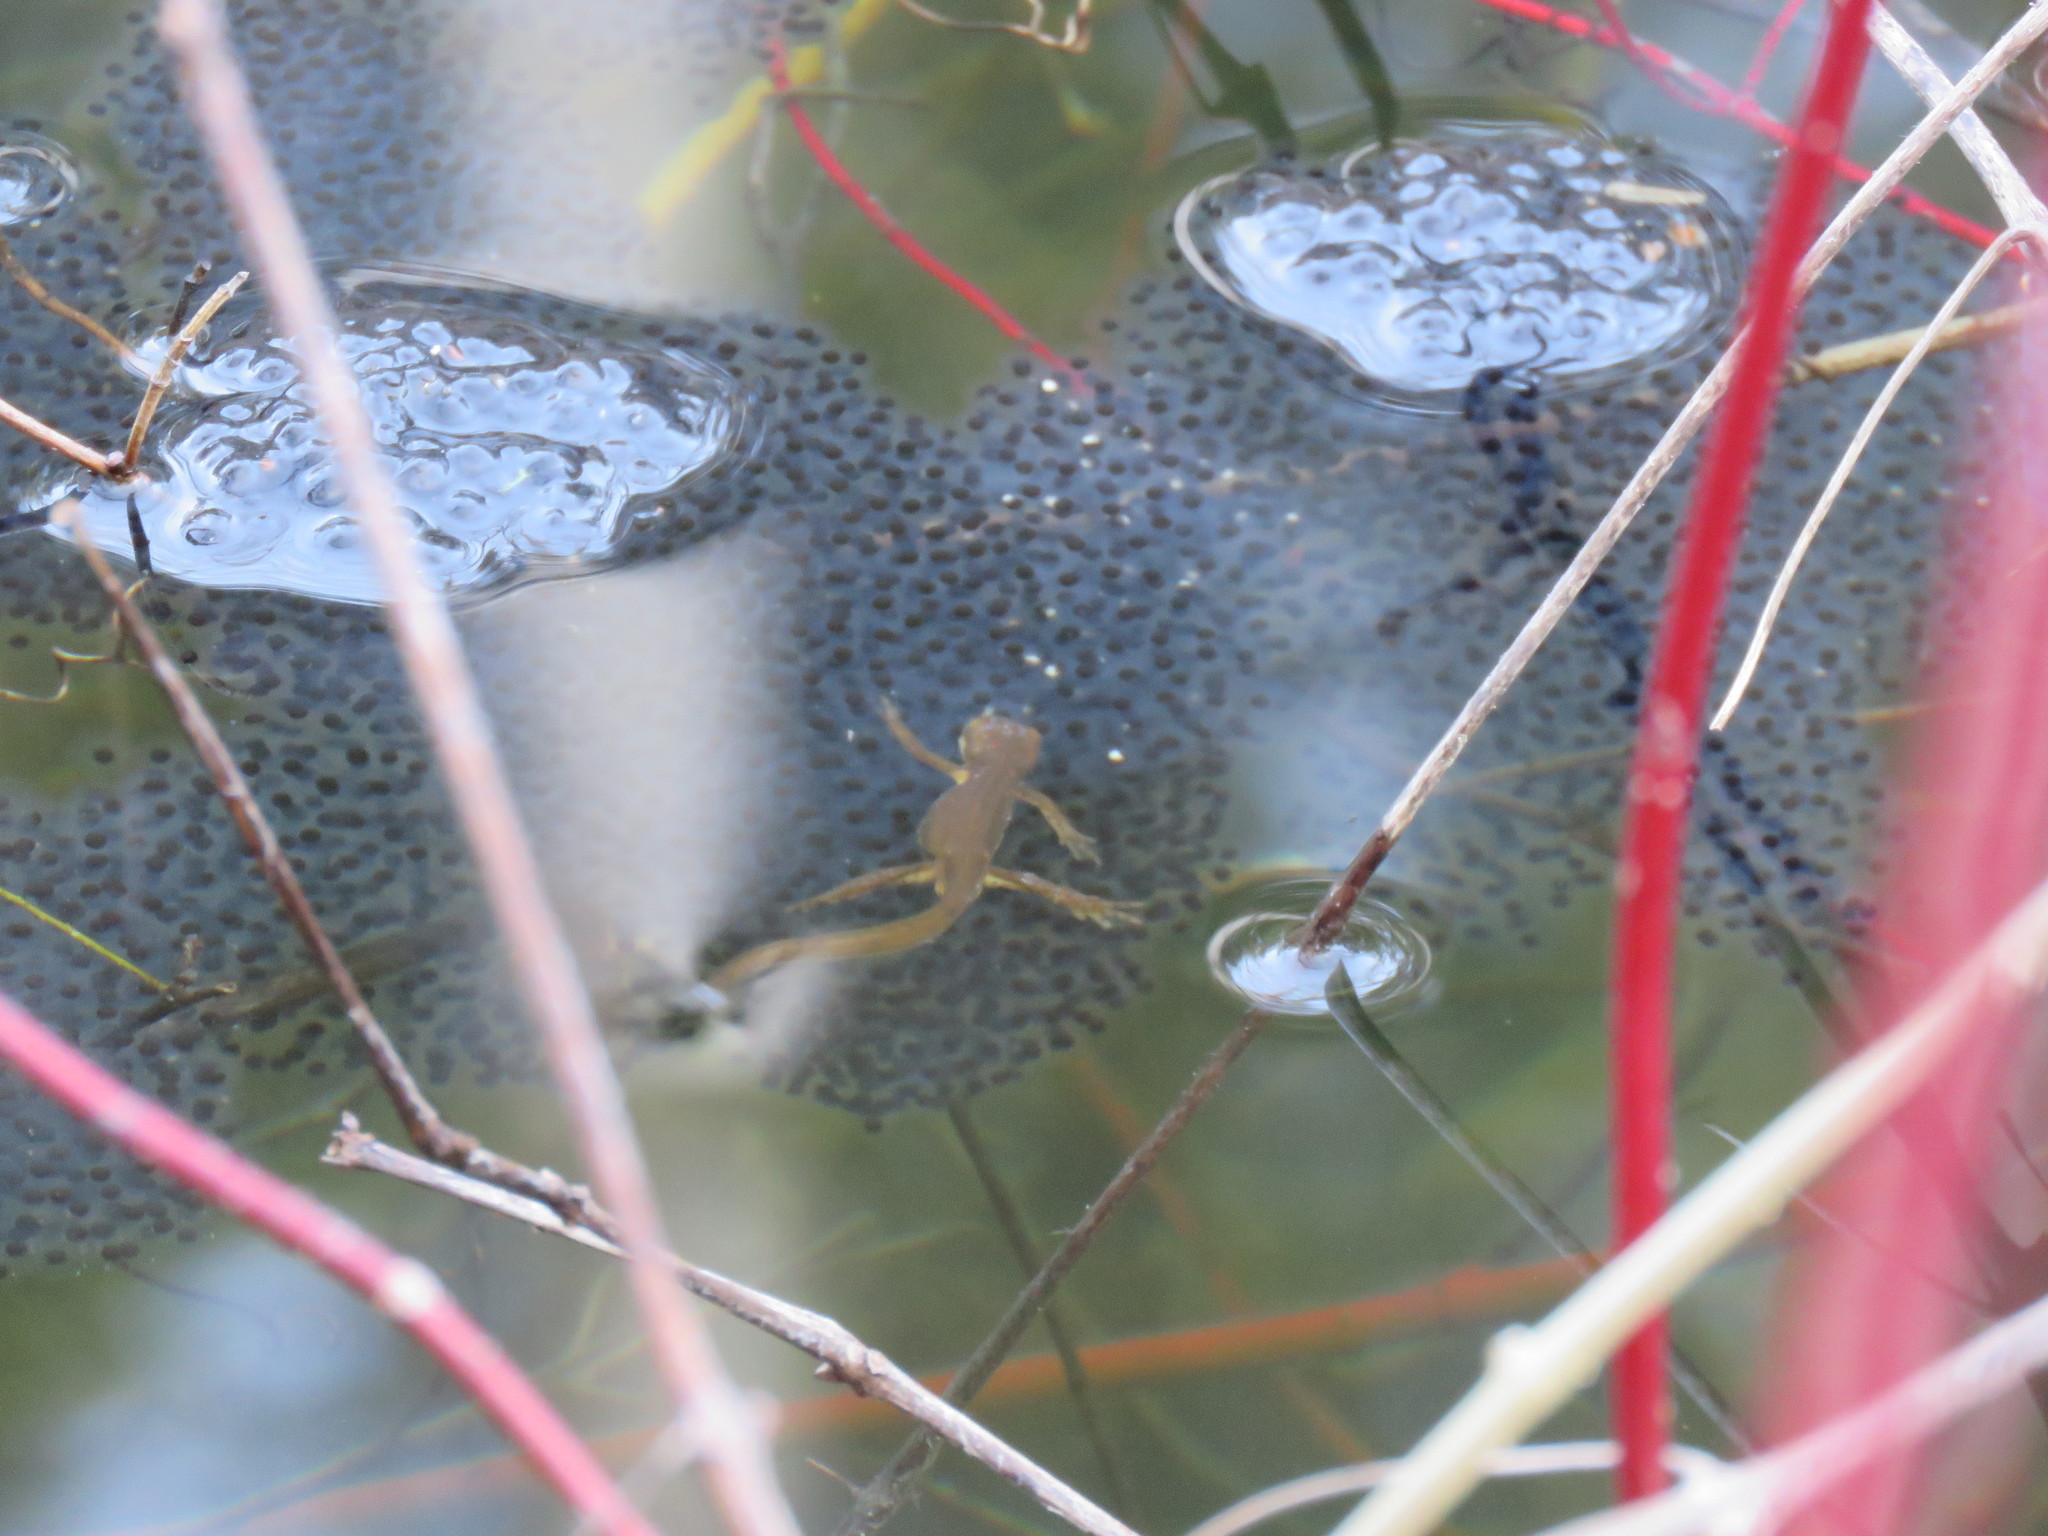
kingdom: Animalia
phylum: Chordata
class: Amphibia
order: Caudata
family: Salamandridae
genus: Notophthalmus
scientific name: Notophthalmus viridescens
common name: Eastern newt
